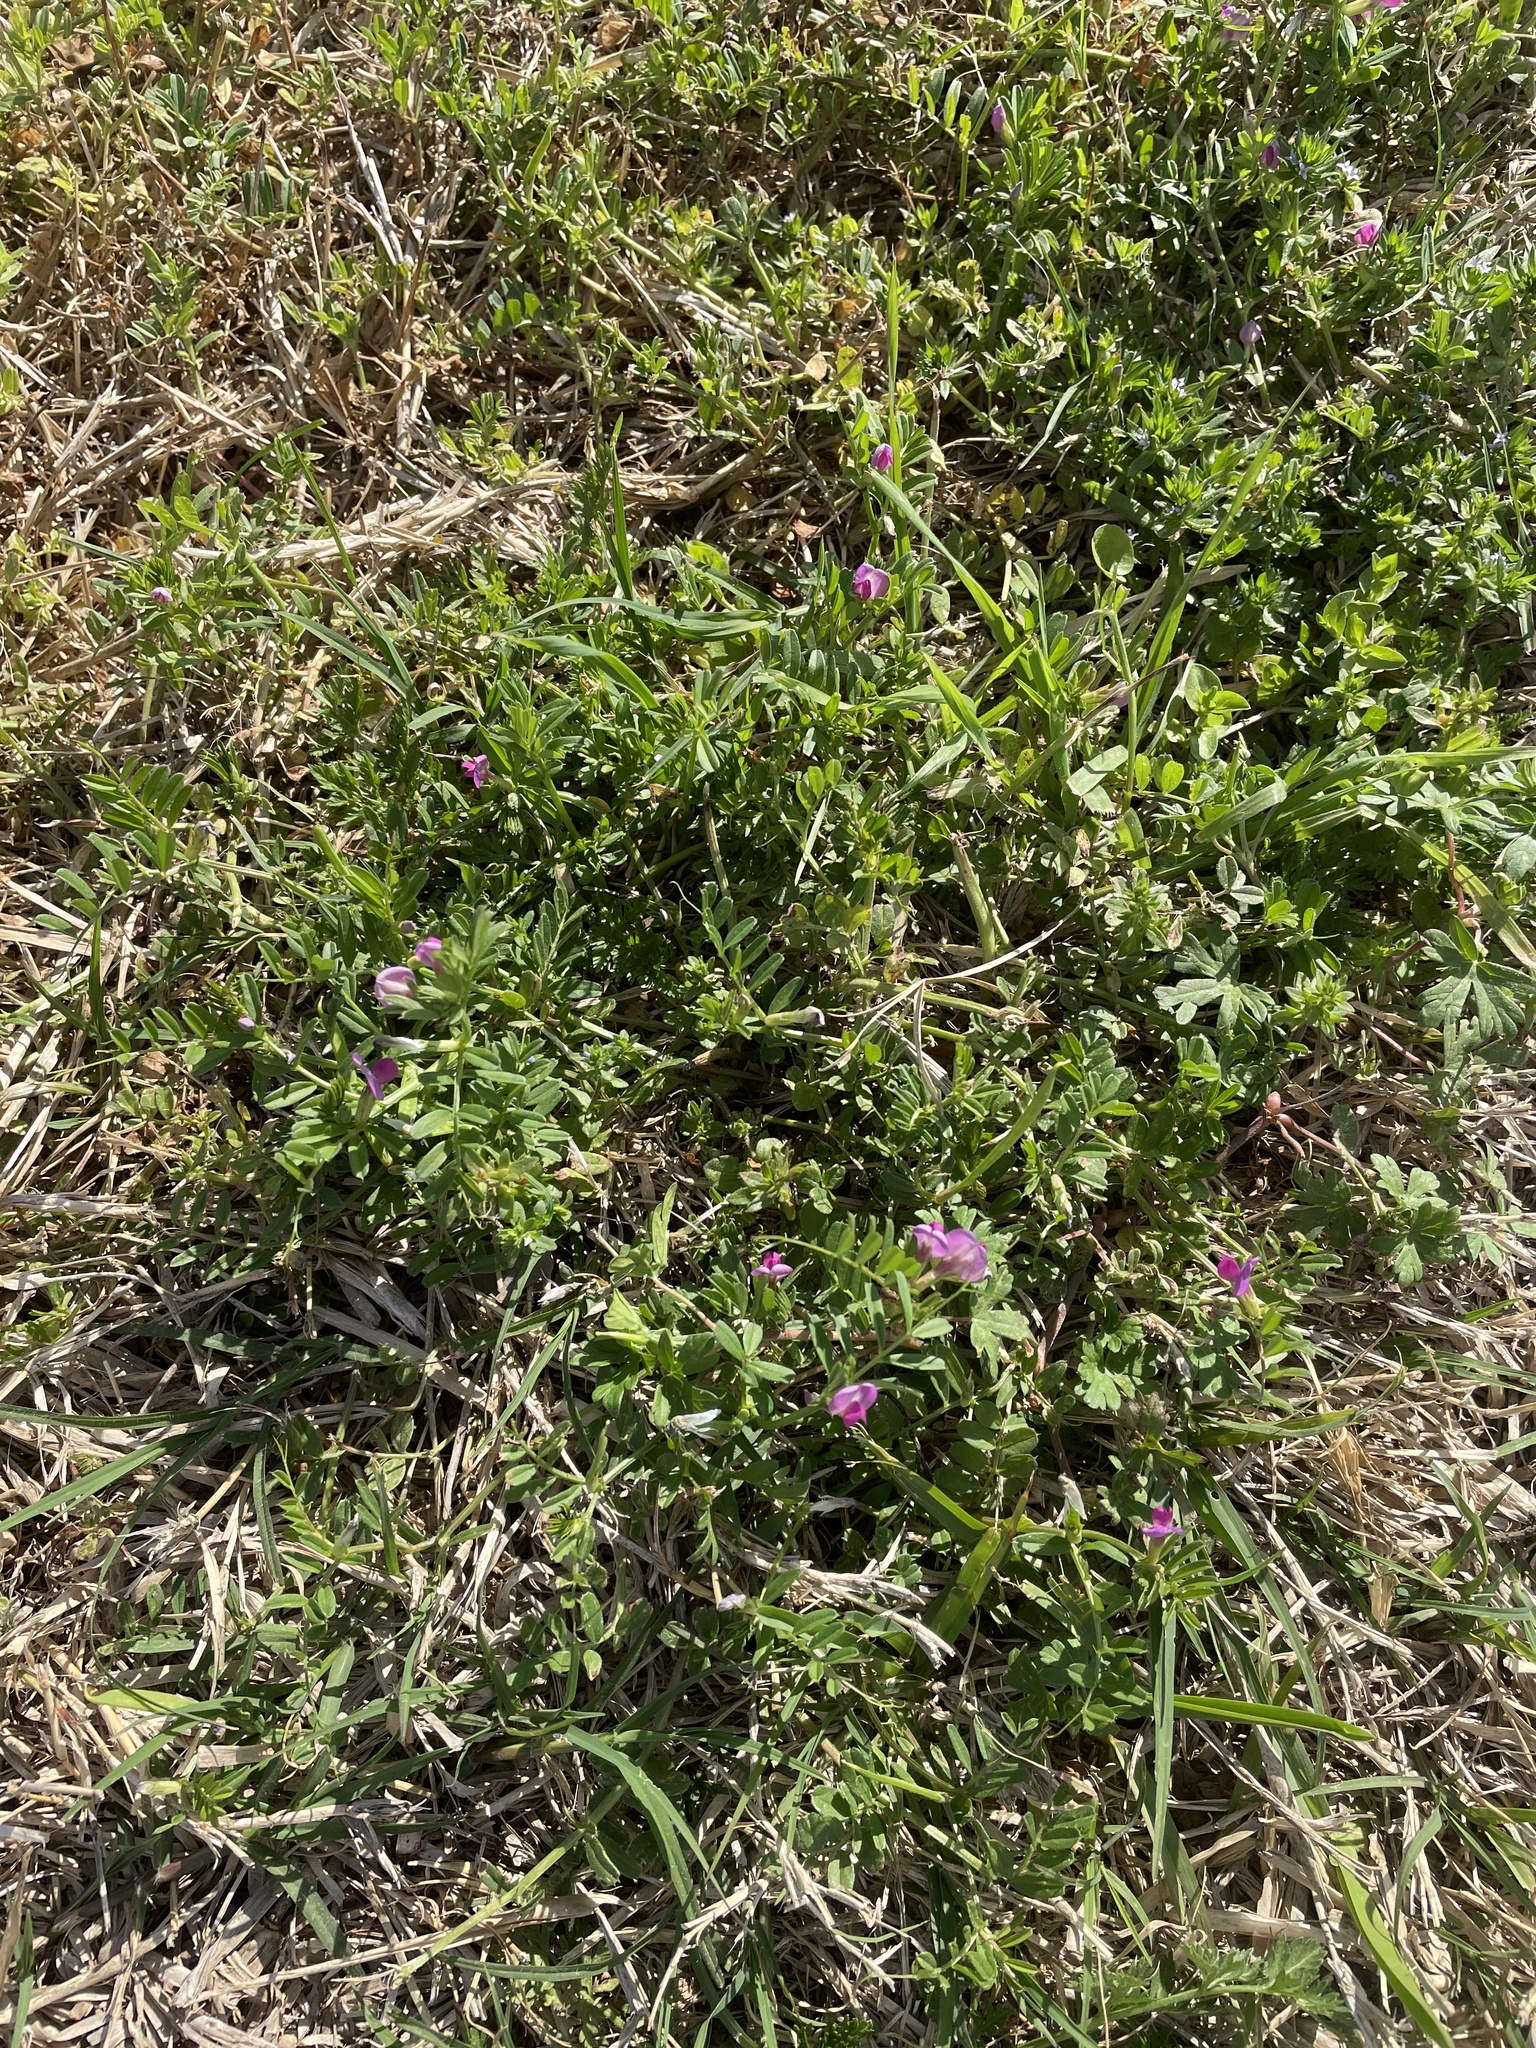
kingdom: Plantae
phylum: Tracheophyta
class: Magnoliopsida
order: Fabales
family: Fabaceae
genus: Vicia
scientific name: Vicia sativa
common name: Garden vetch
